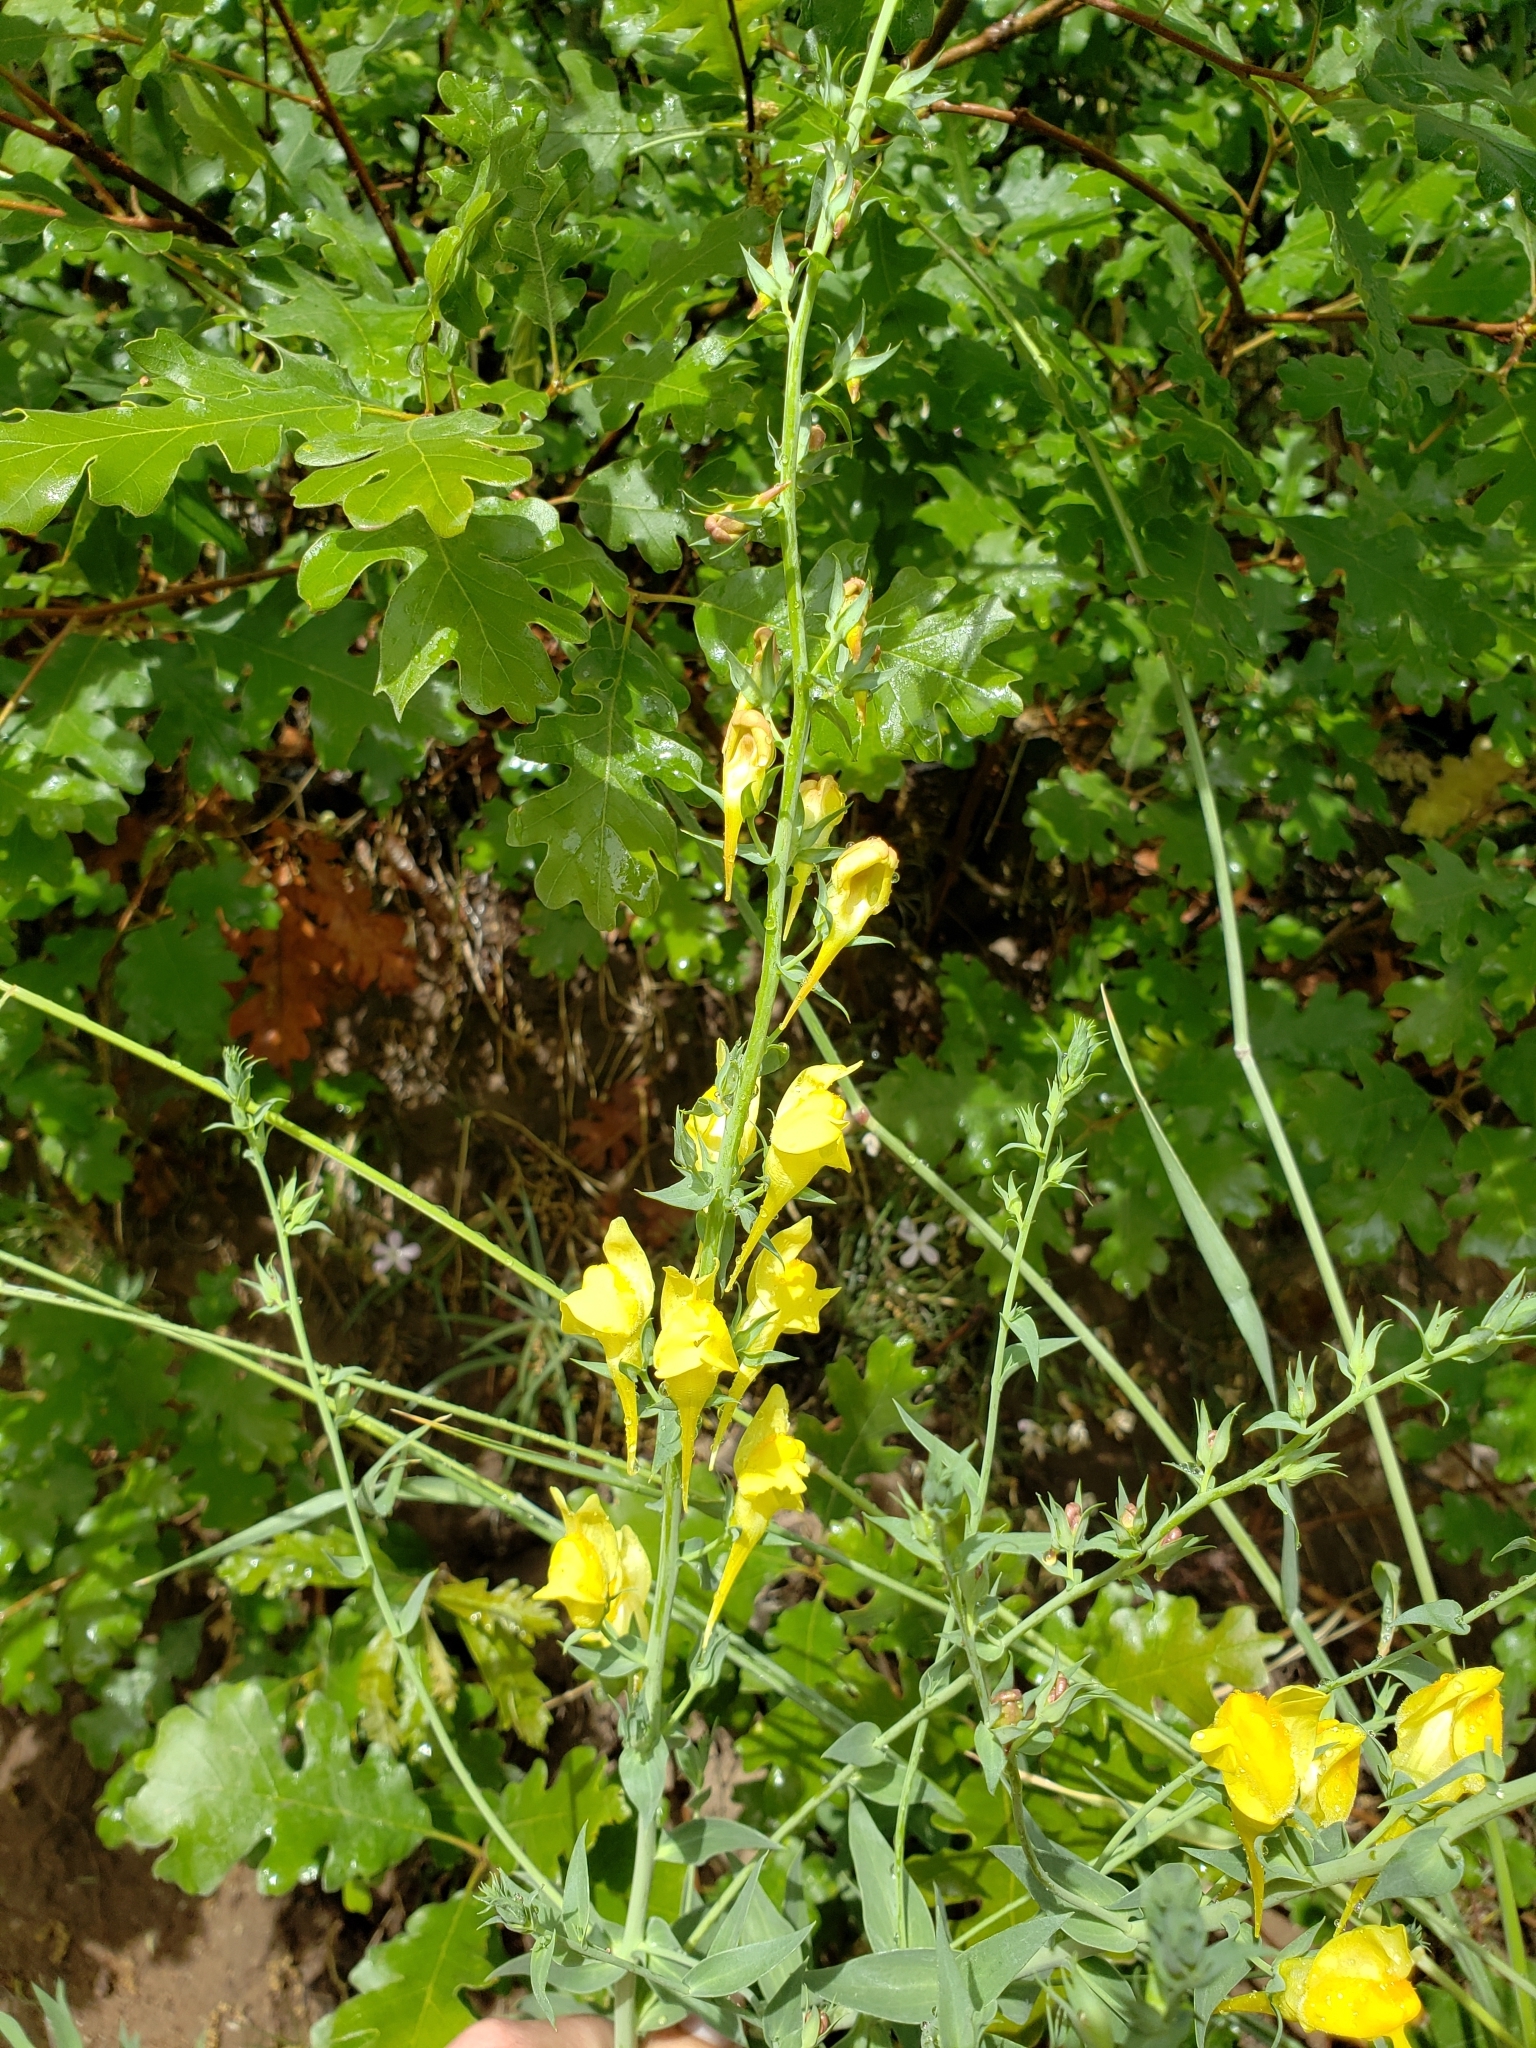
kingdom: Plantae
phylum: Tracheophyta
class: Magnoliopsida
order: Lamiales
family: Plantaginaceae
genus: Linaria
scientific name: Linaria dalmatica
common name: Dalmatian toadflax
